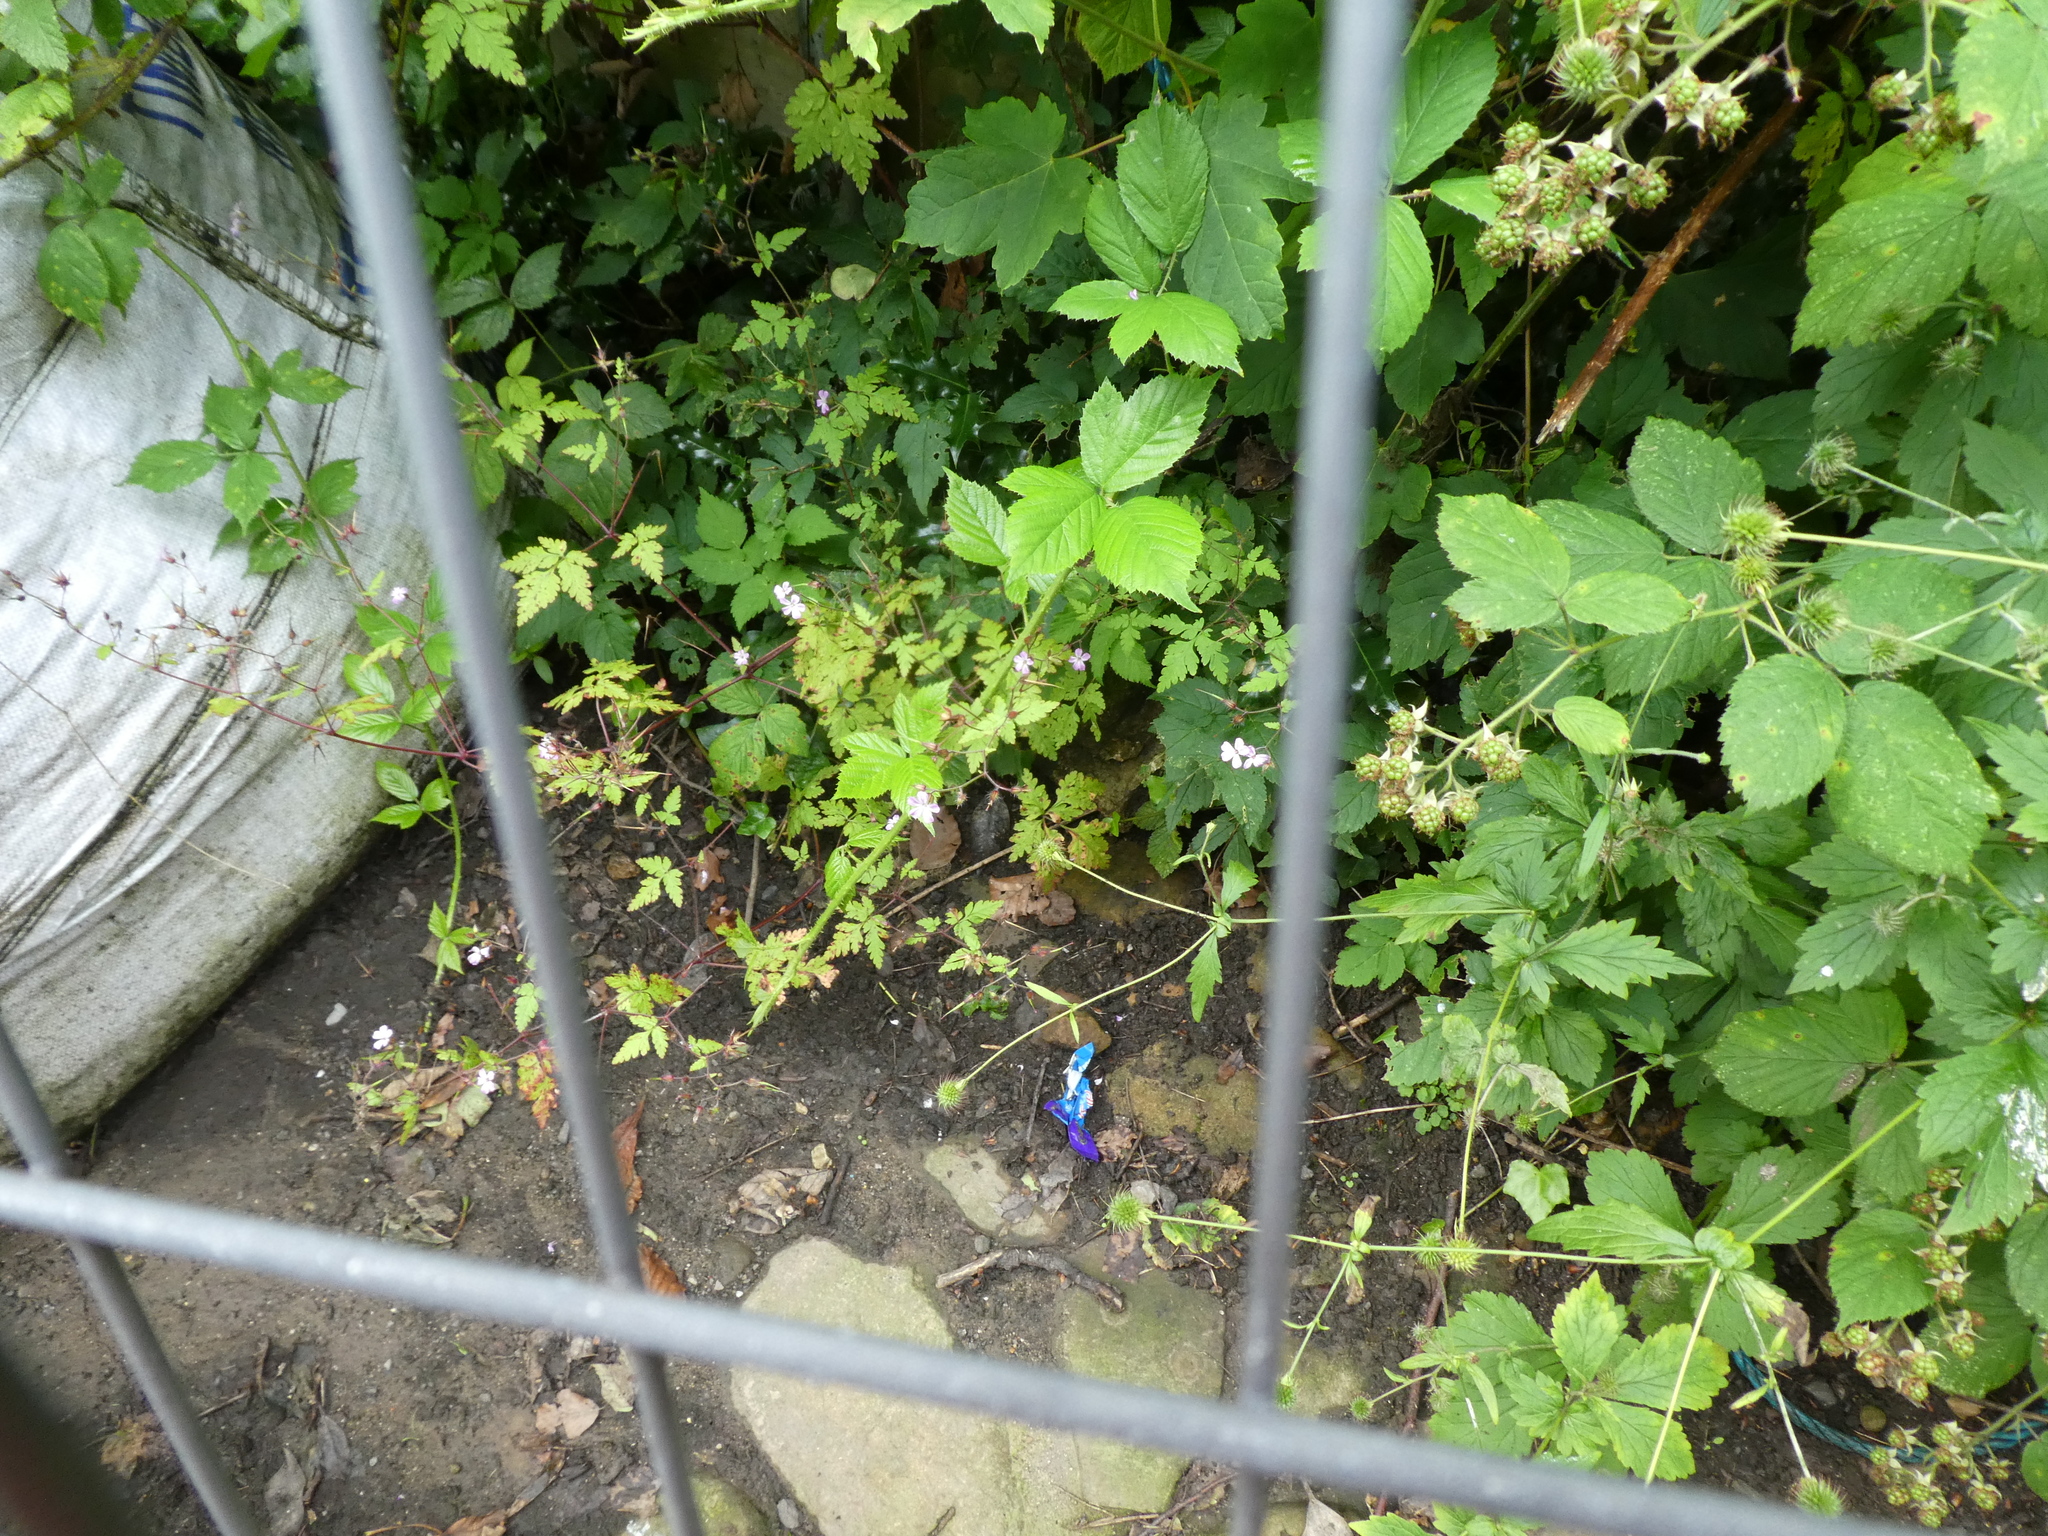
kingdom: Plantae
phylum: Tracheophyta
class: Magnoliopsida
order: Geraniales
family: Geraniaceae
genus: Geranium
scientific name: Geranium robertianum
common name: Herb-robert
